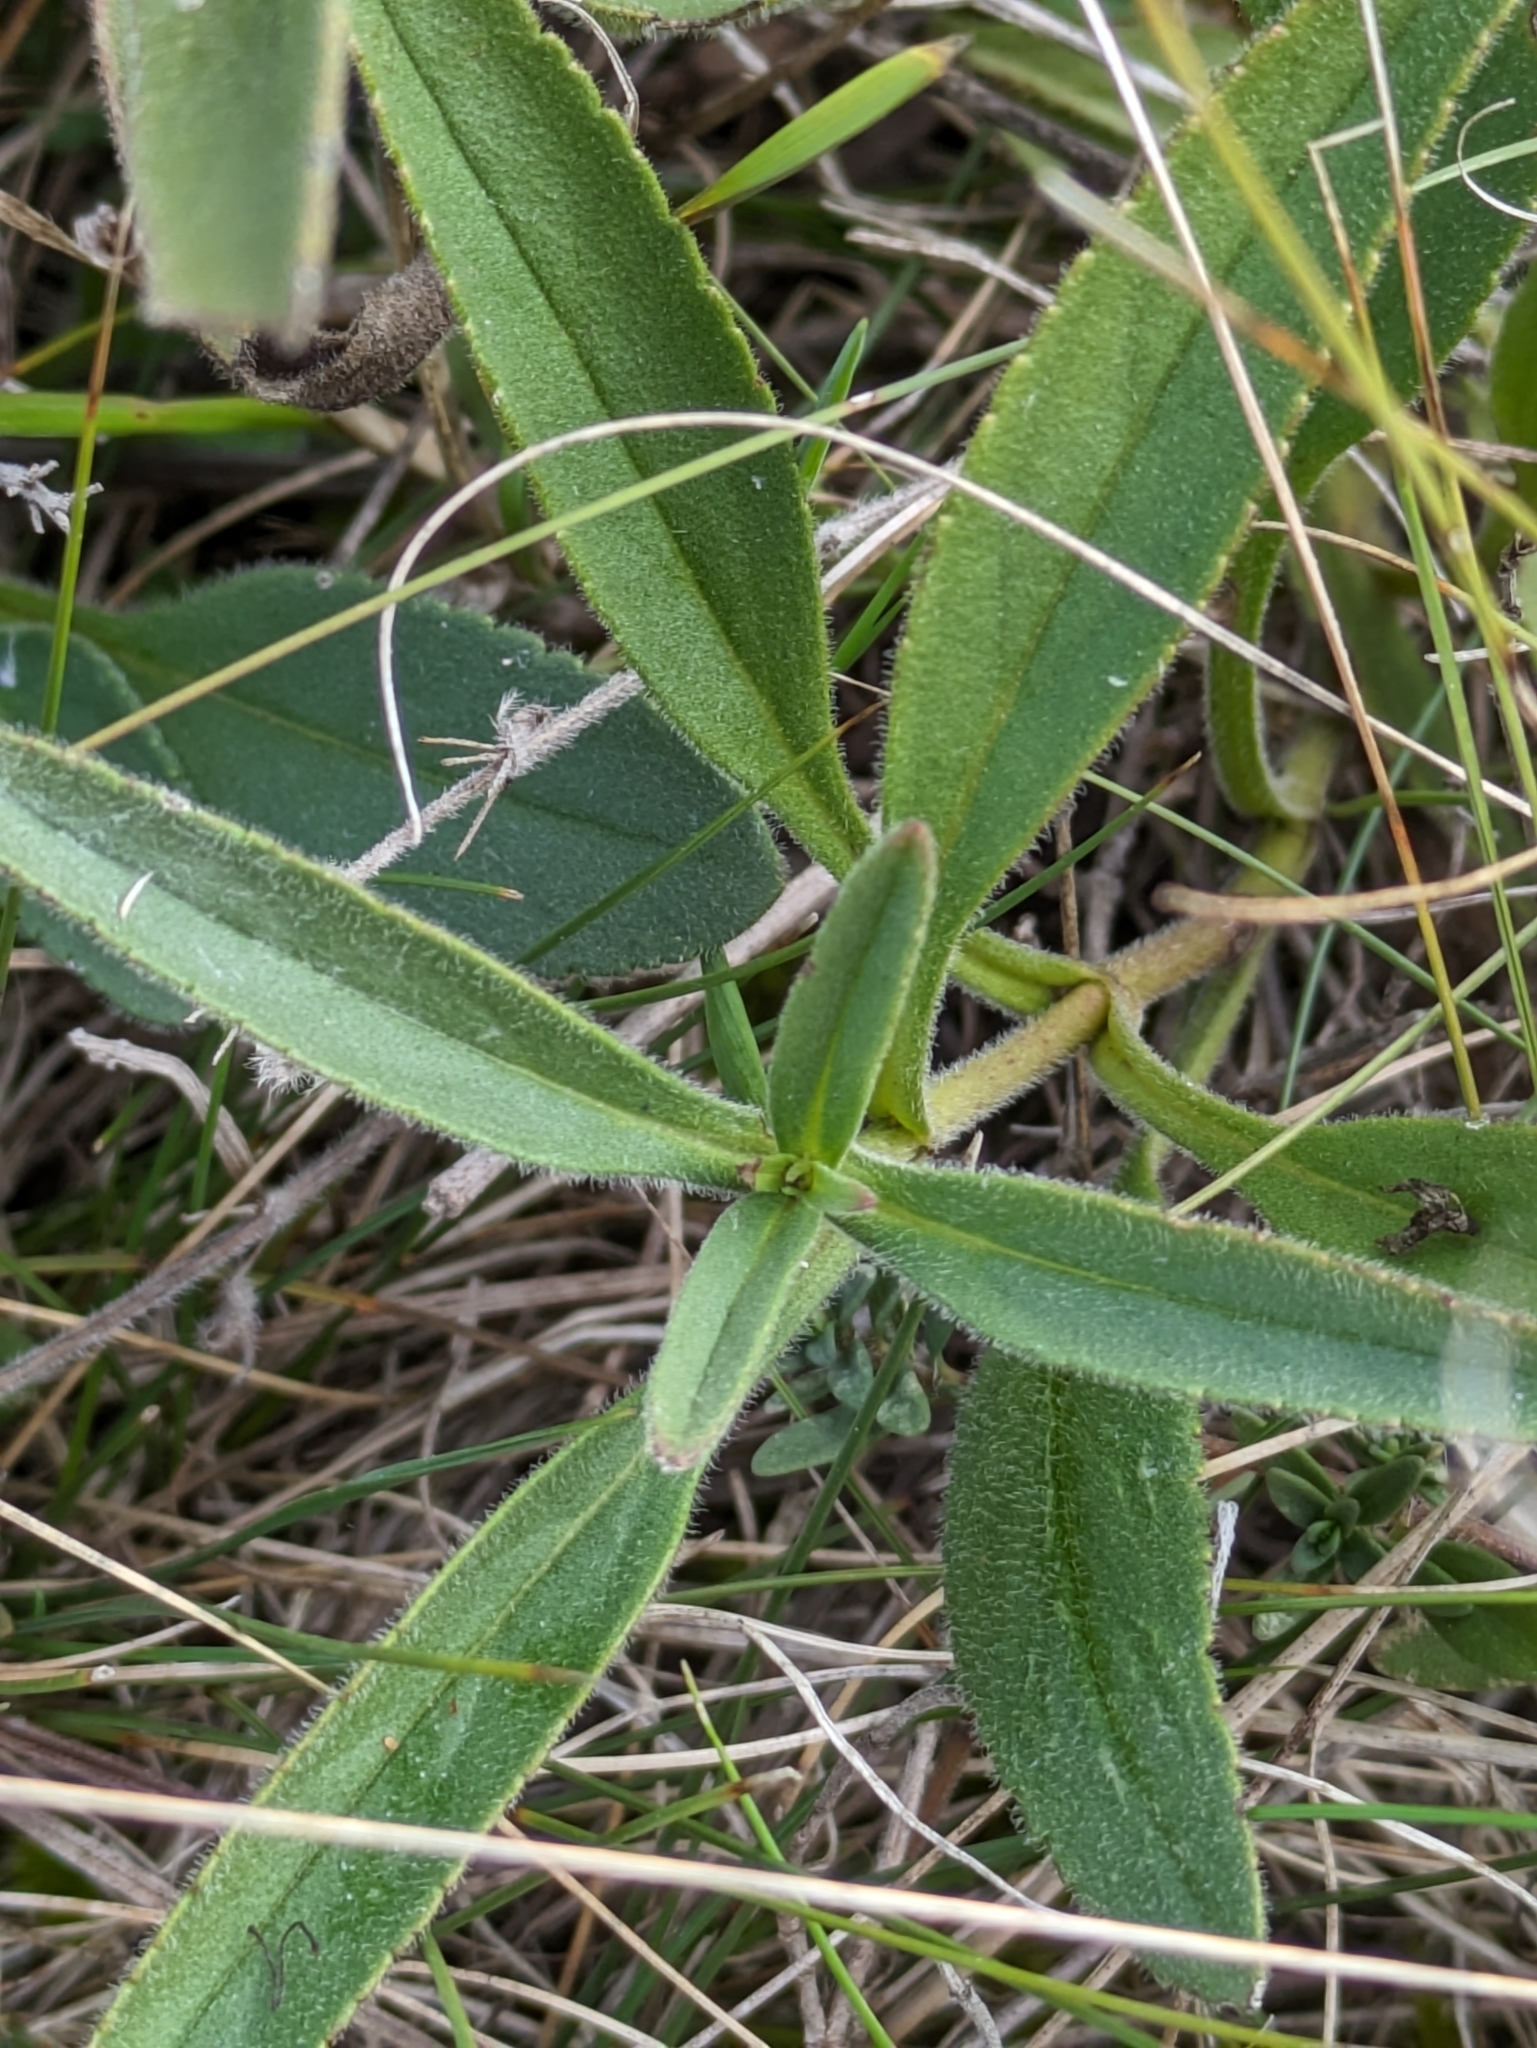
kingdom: Plantae
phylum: Tracheophyta
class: Magnoliopsida
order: Lamiales
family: Plantaginaceae
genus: Veronica
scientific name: Veronica spicata
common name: Spiked speedwell
